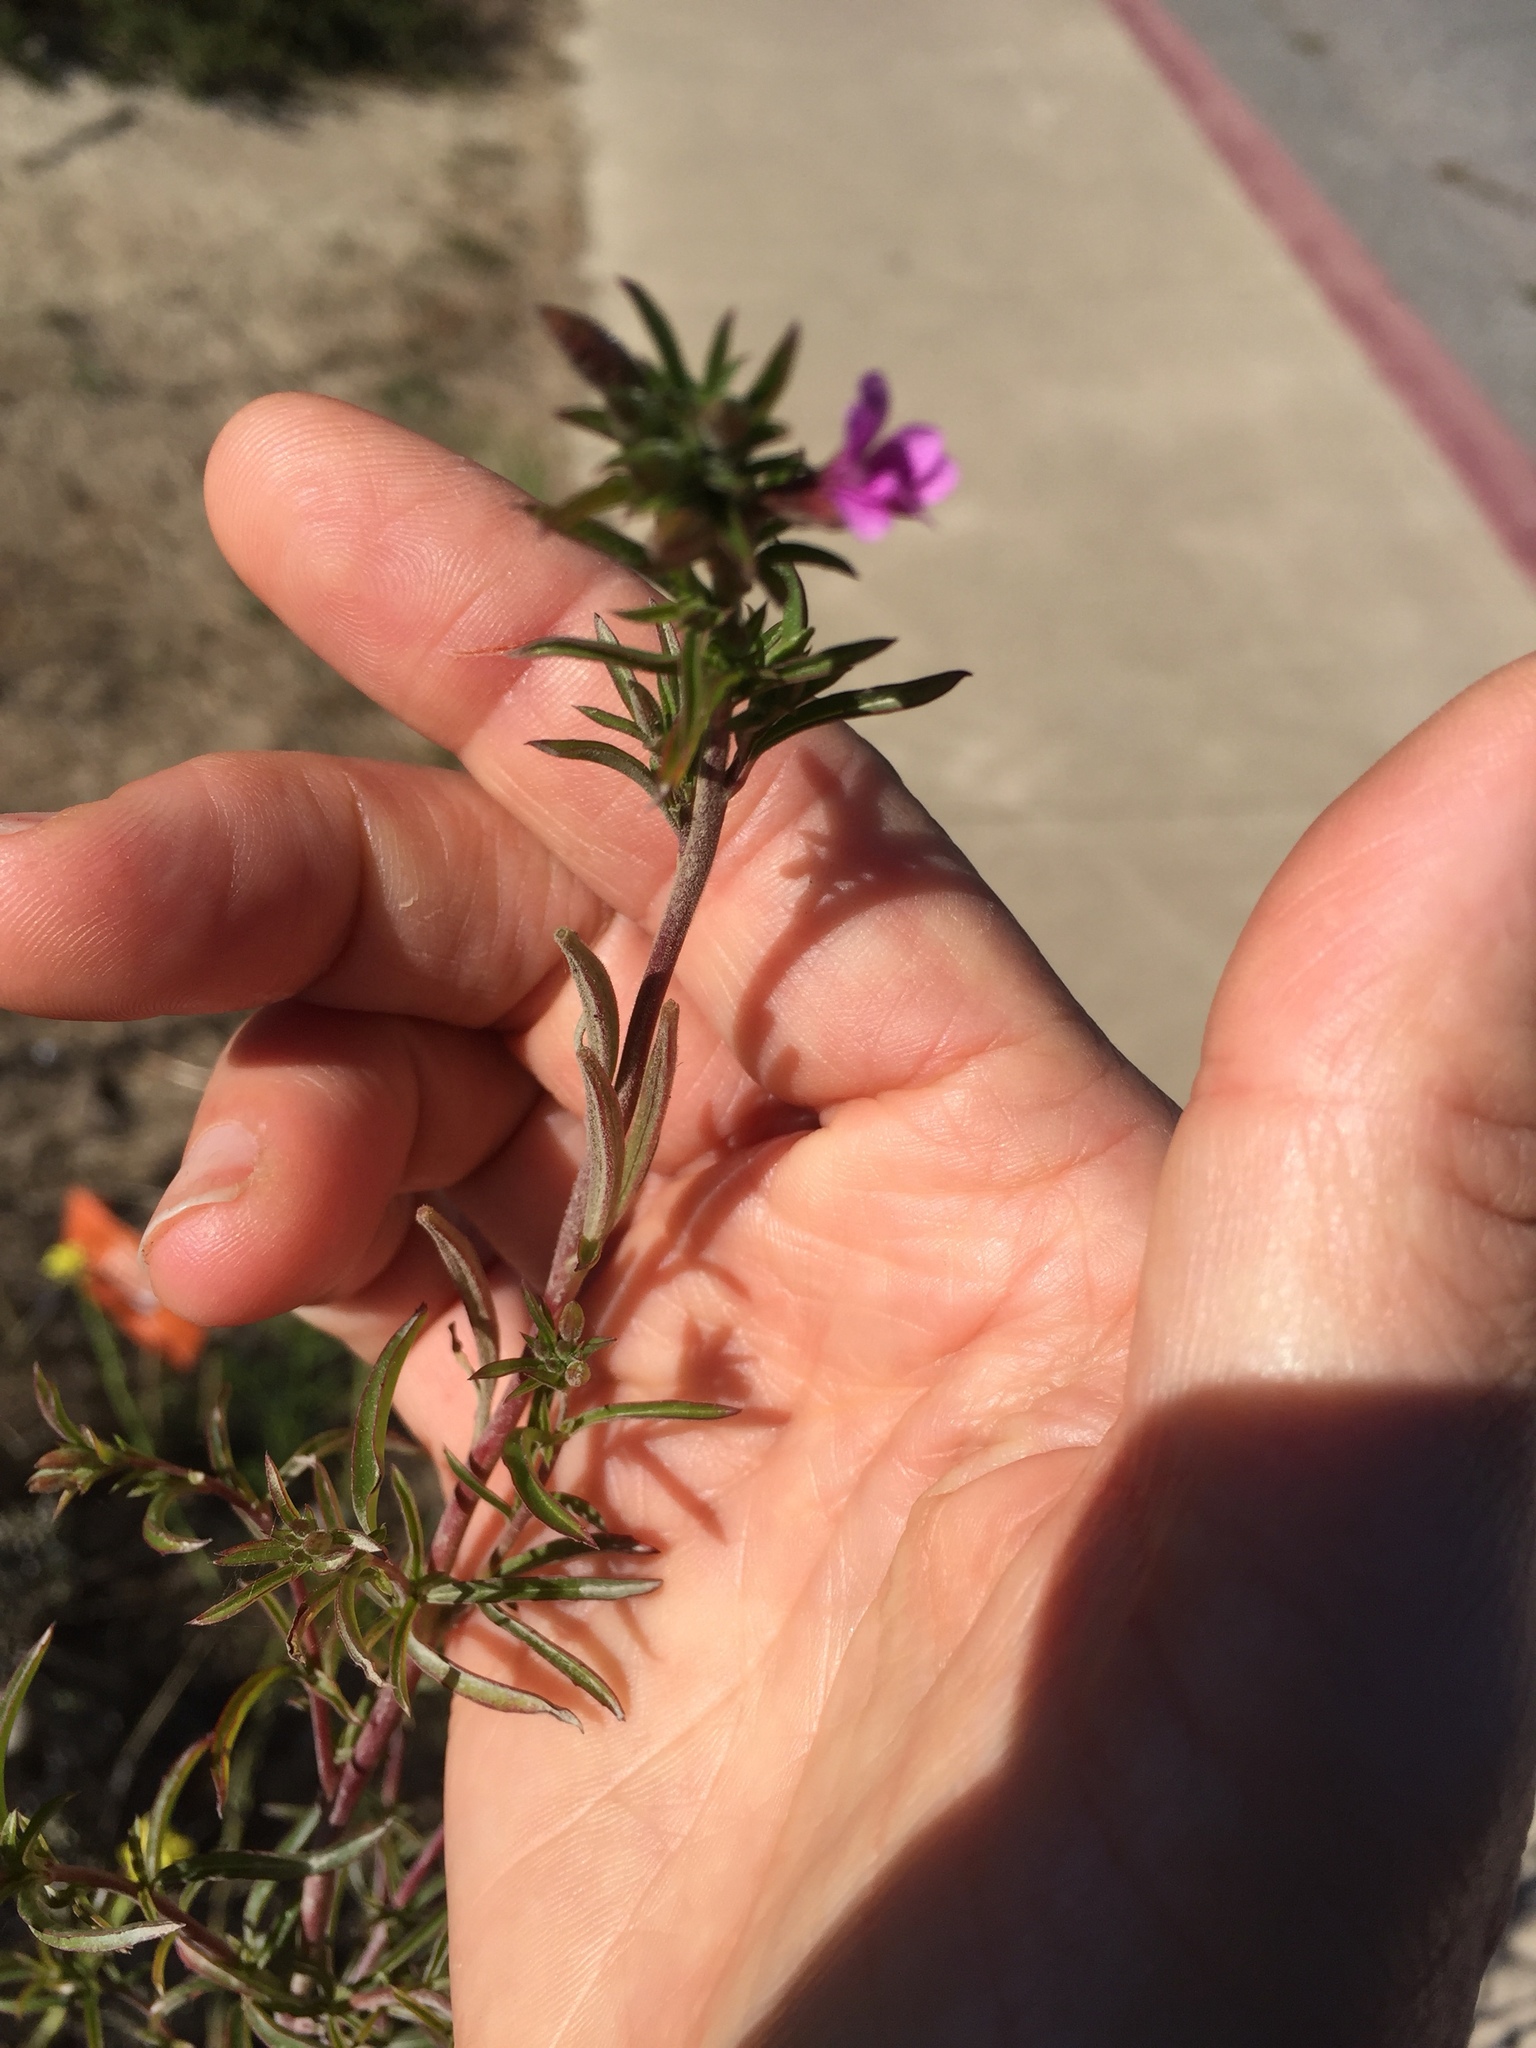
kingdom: Plantae
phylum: Tracheophyta
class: Magnoliopsida
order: Myrtales
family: Onagraceae
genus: Epilobium
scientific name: Epilobium brachycarpum
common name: Annual willowherb
